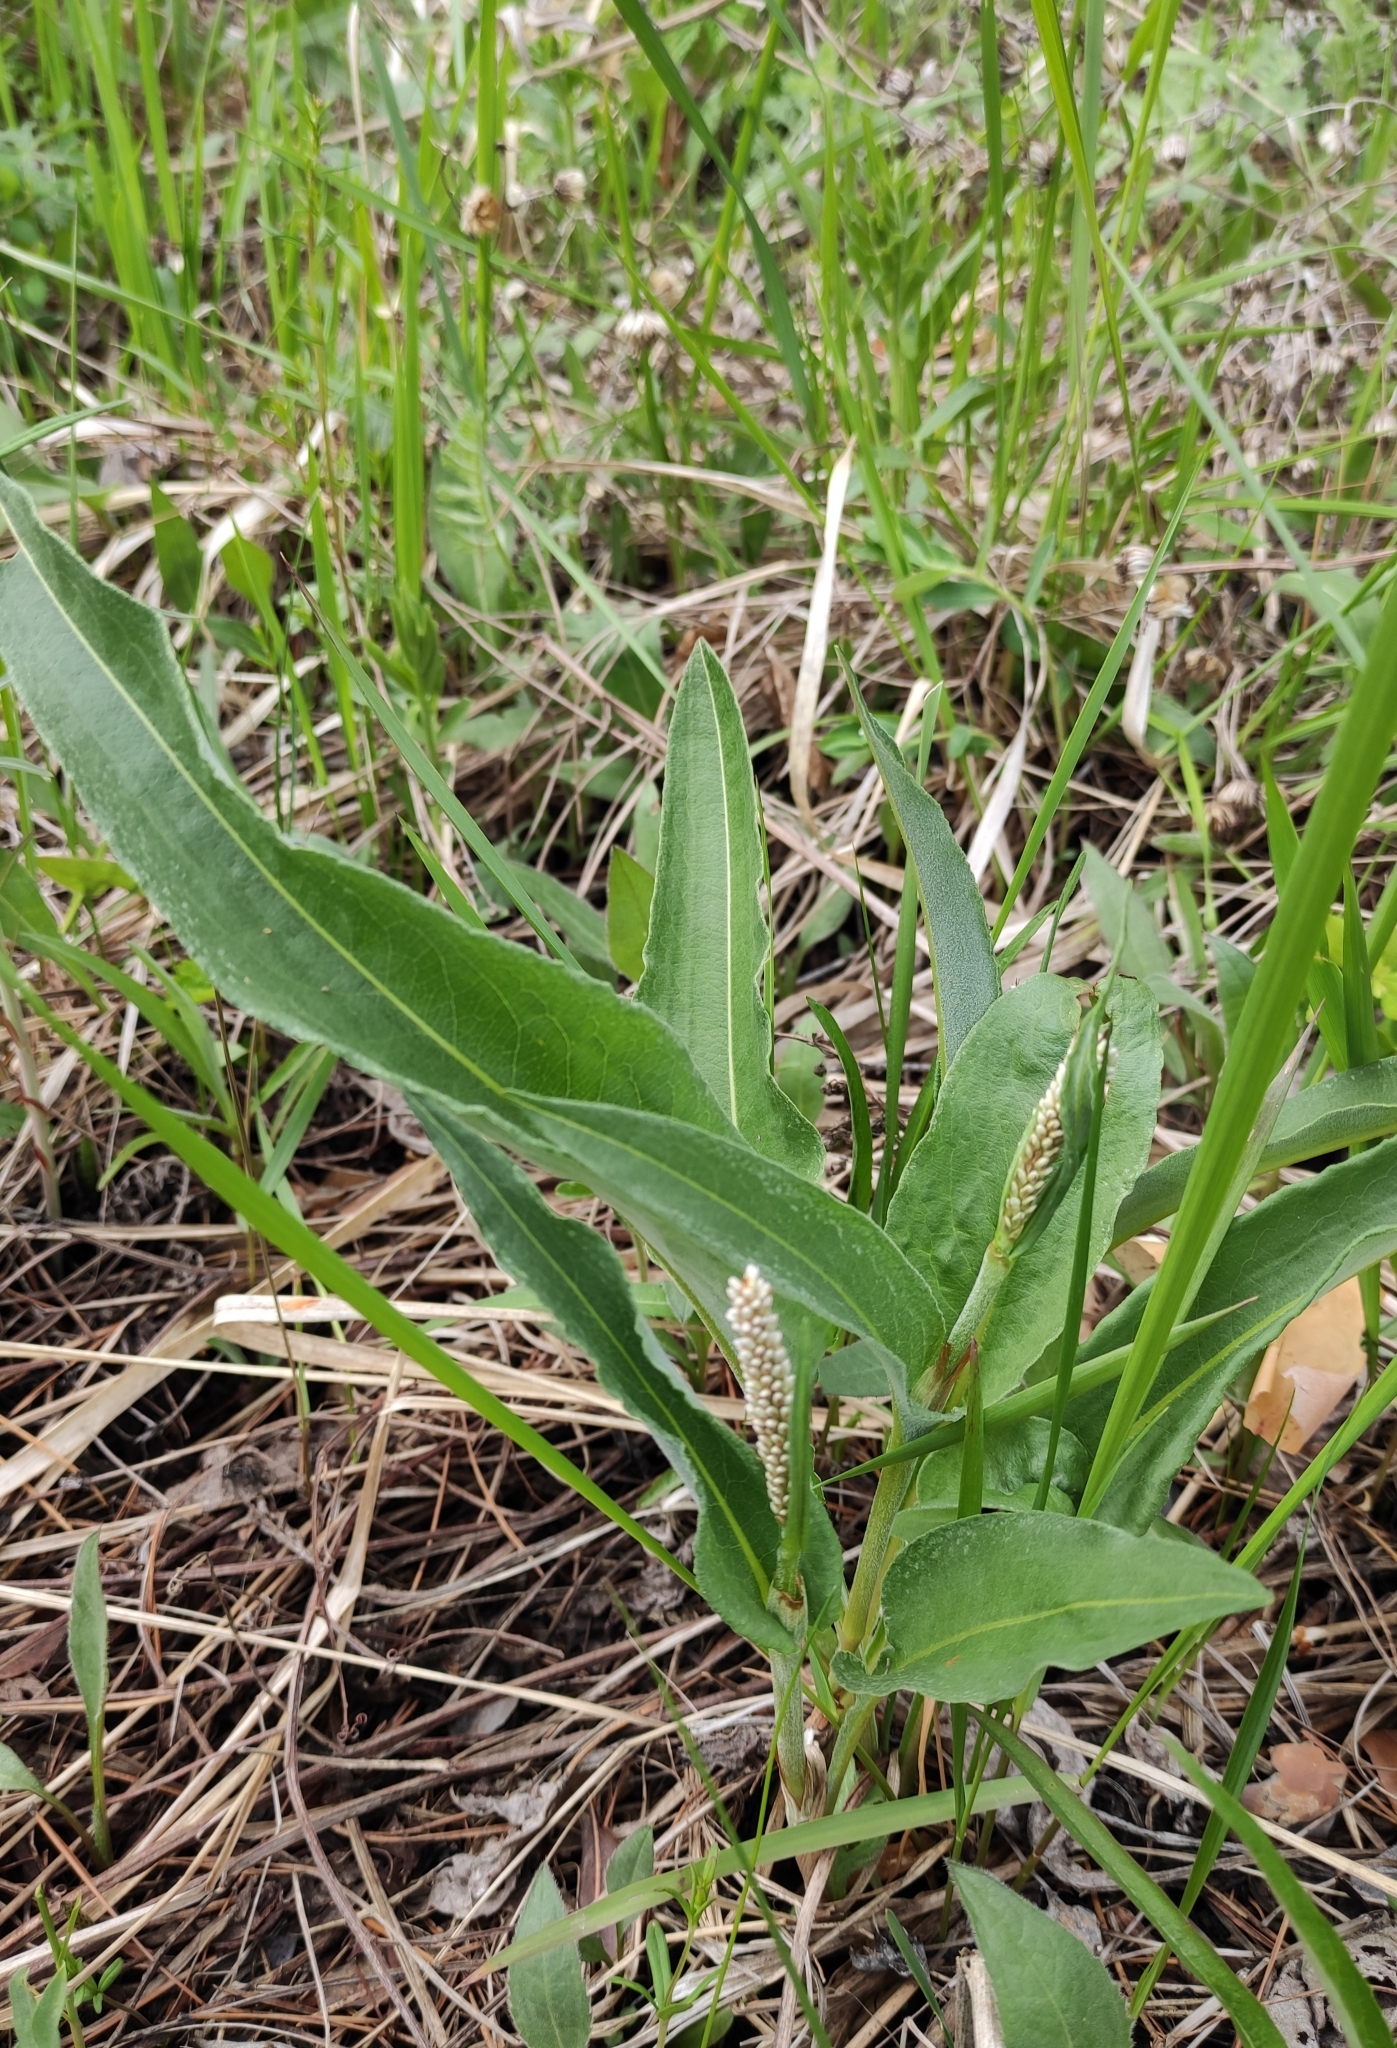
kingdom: Plantae
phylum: Tracheophyta
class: Magnoliopsida
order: Caryophyllales
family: Polygonaceae
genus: Bistorta
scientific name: Bistorta officinalis
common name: Common bistort
